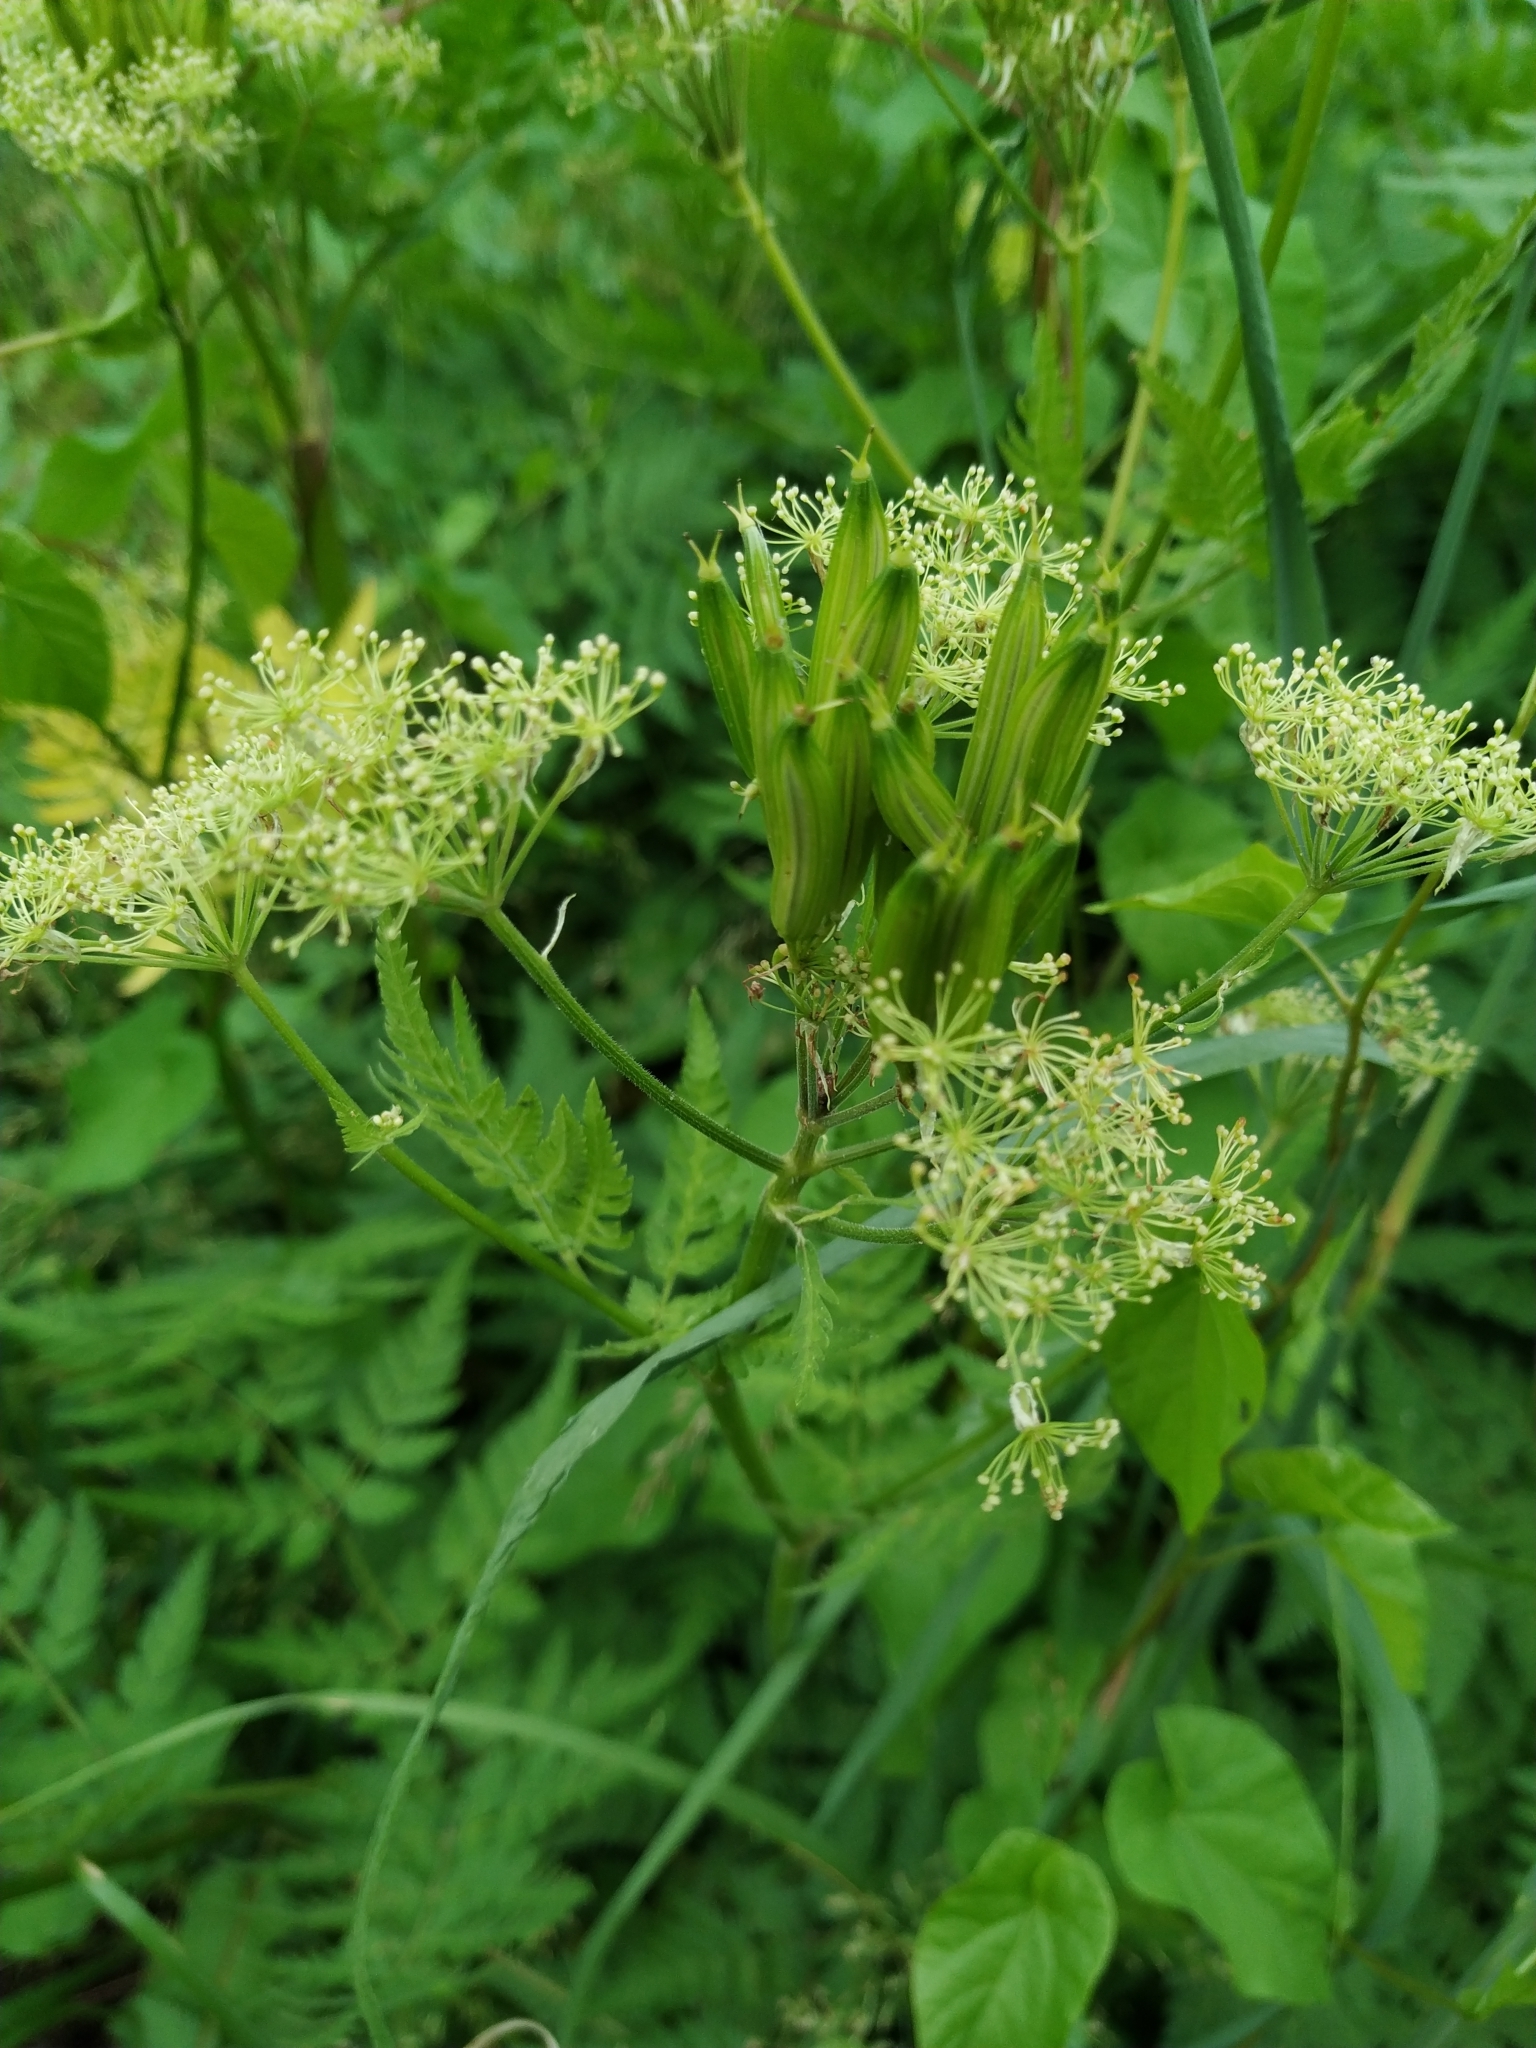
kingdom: Plantae
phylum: Tracheophyta
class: Magnoliopsida
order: Apiales
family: Apiaceae
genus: Myrrhis
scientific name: Myrrhis odorata
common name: Sweet cicely
